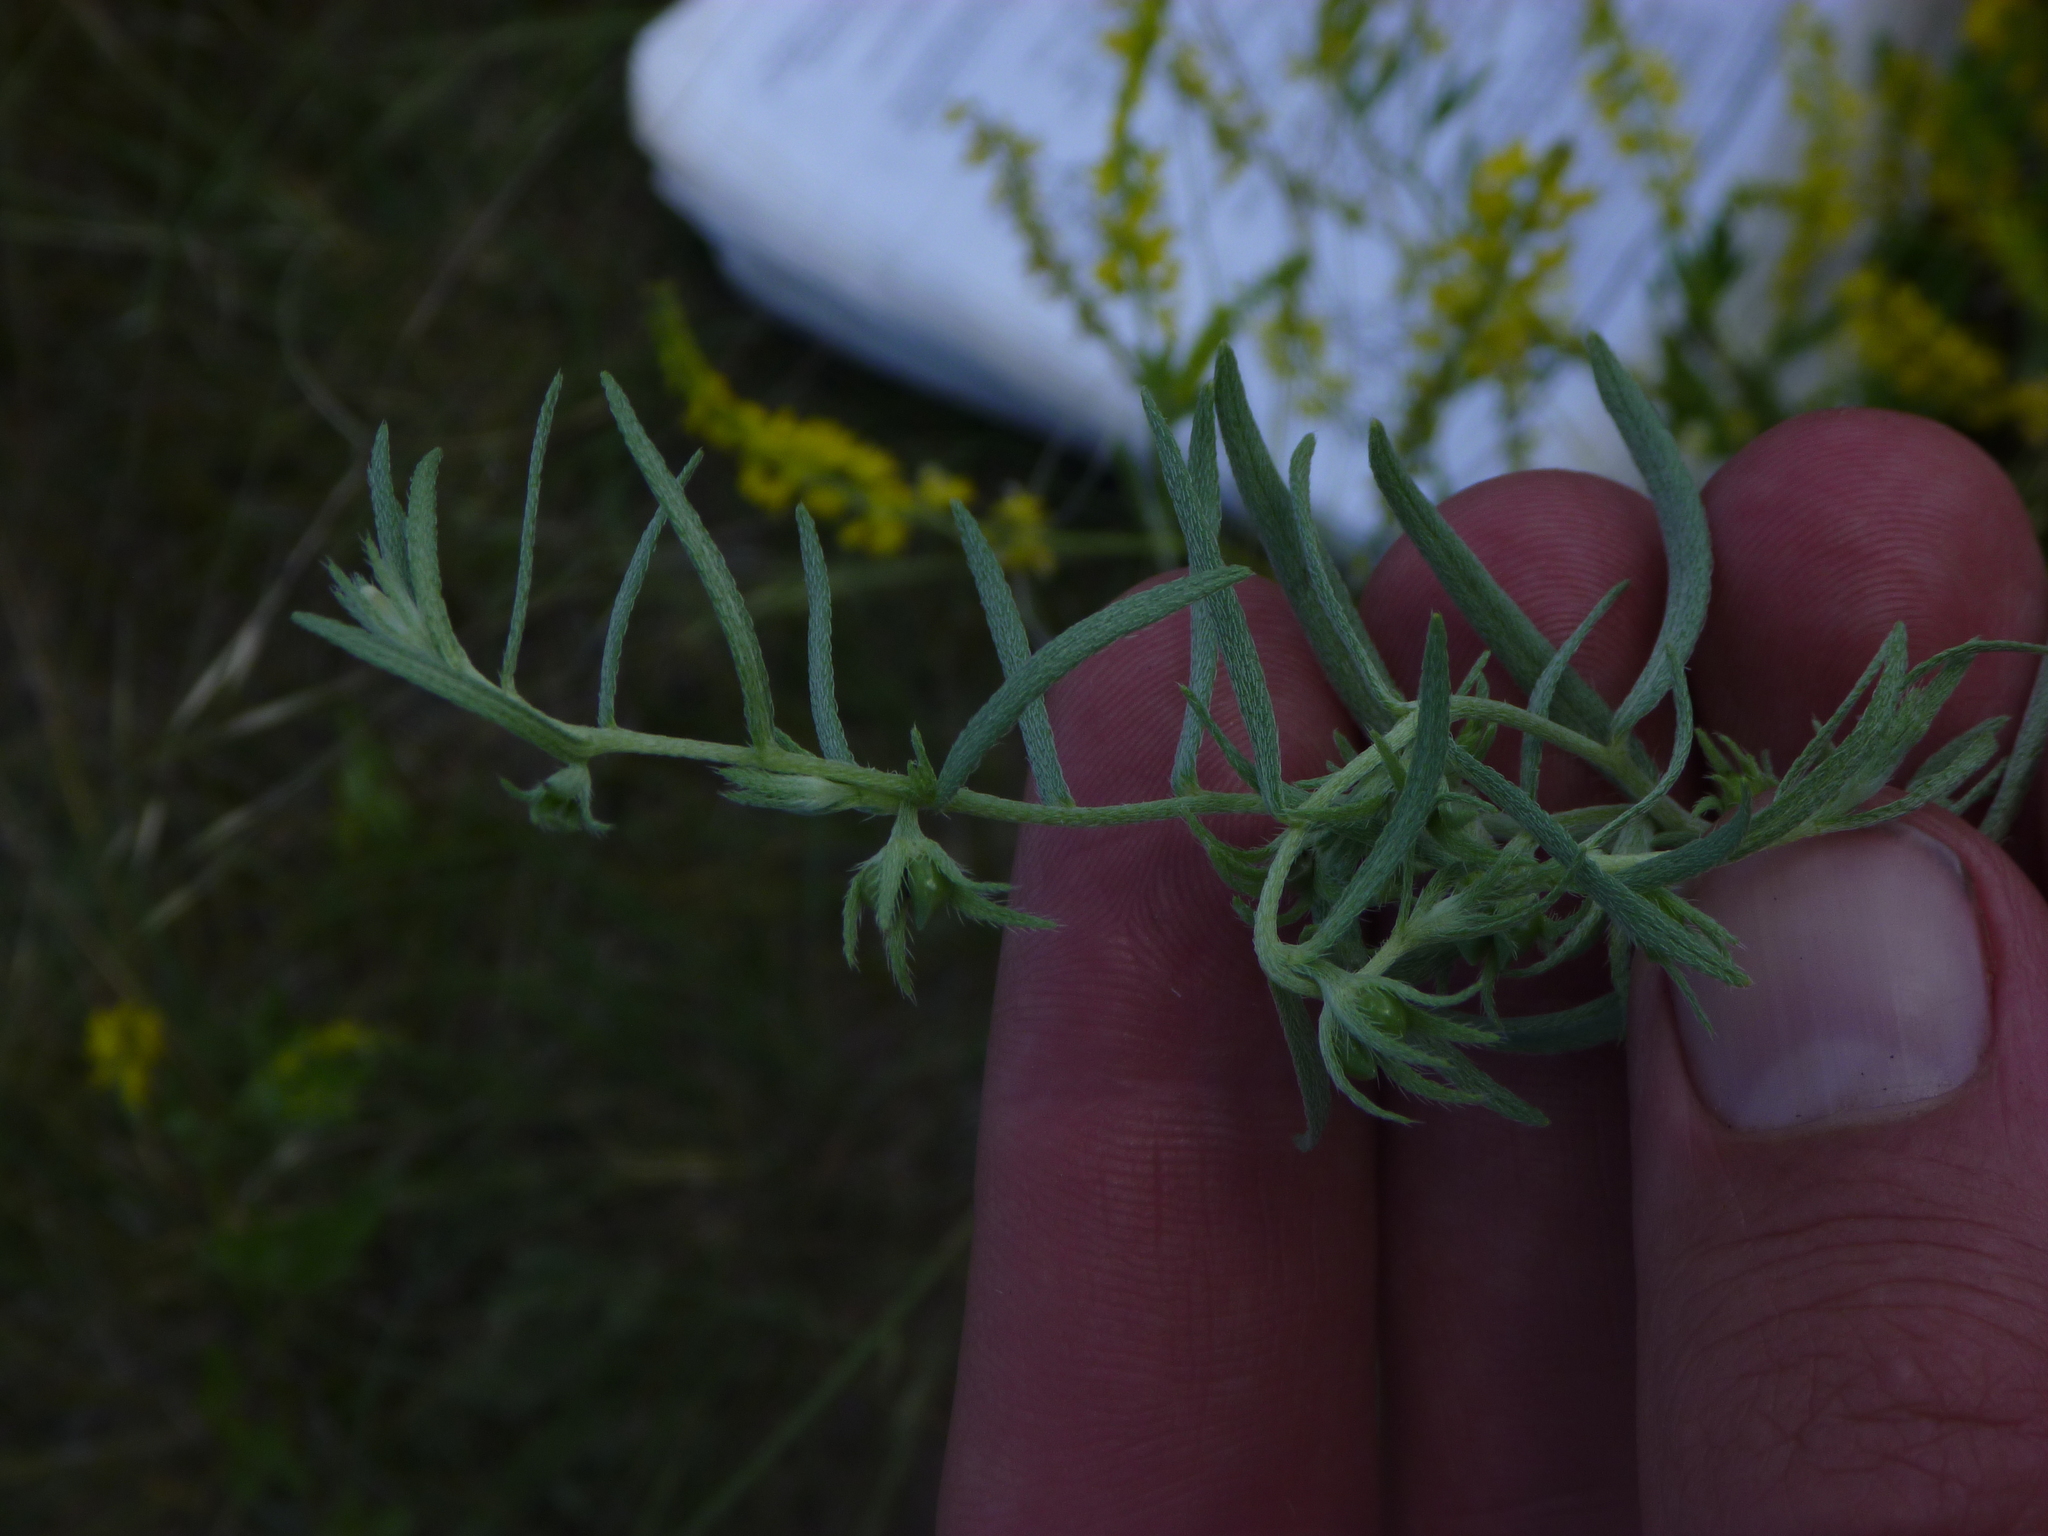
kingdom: Plantae
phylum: Tracheophyta
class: Magnoliopsida
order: Boraginales
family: Boraginaceae
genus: Lithospermum
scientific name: Lithospermum incisum
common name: Fringed gromwell
